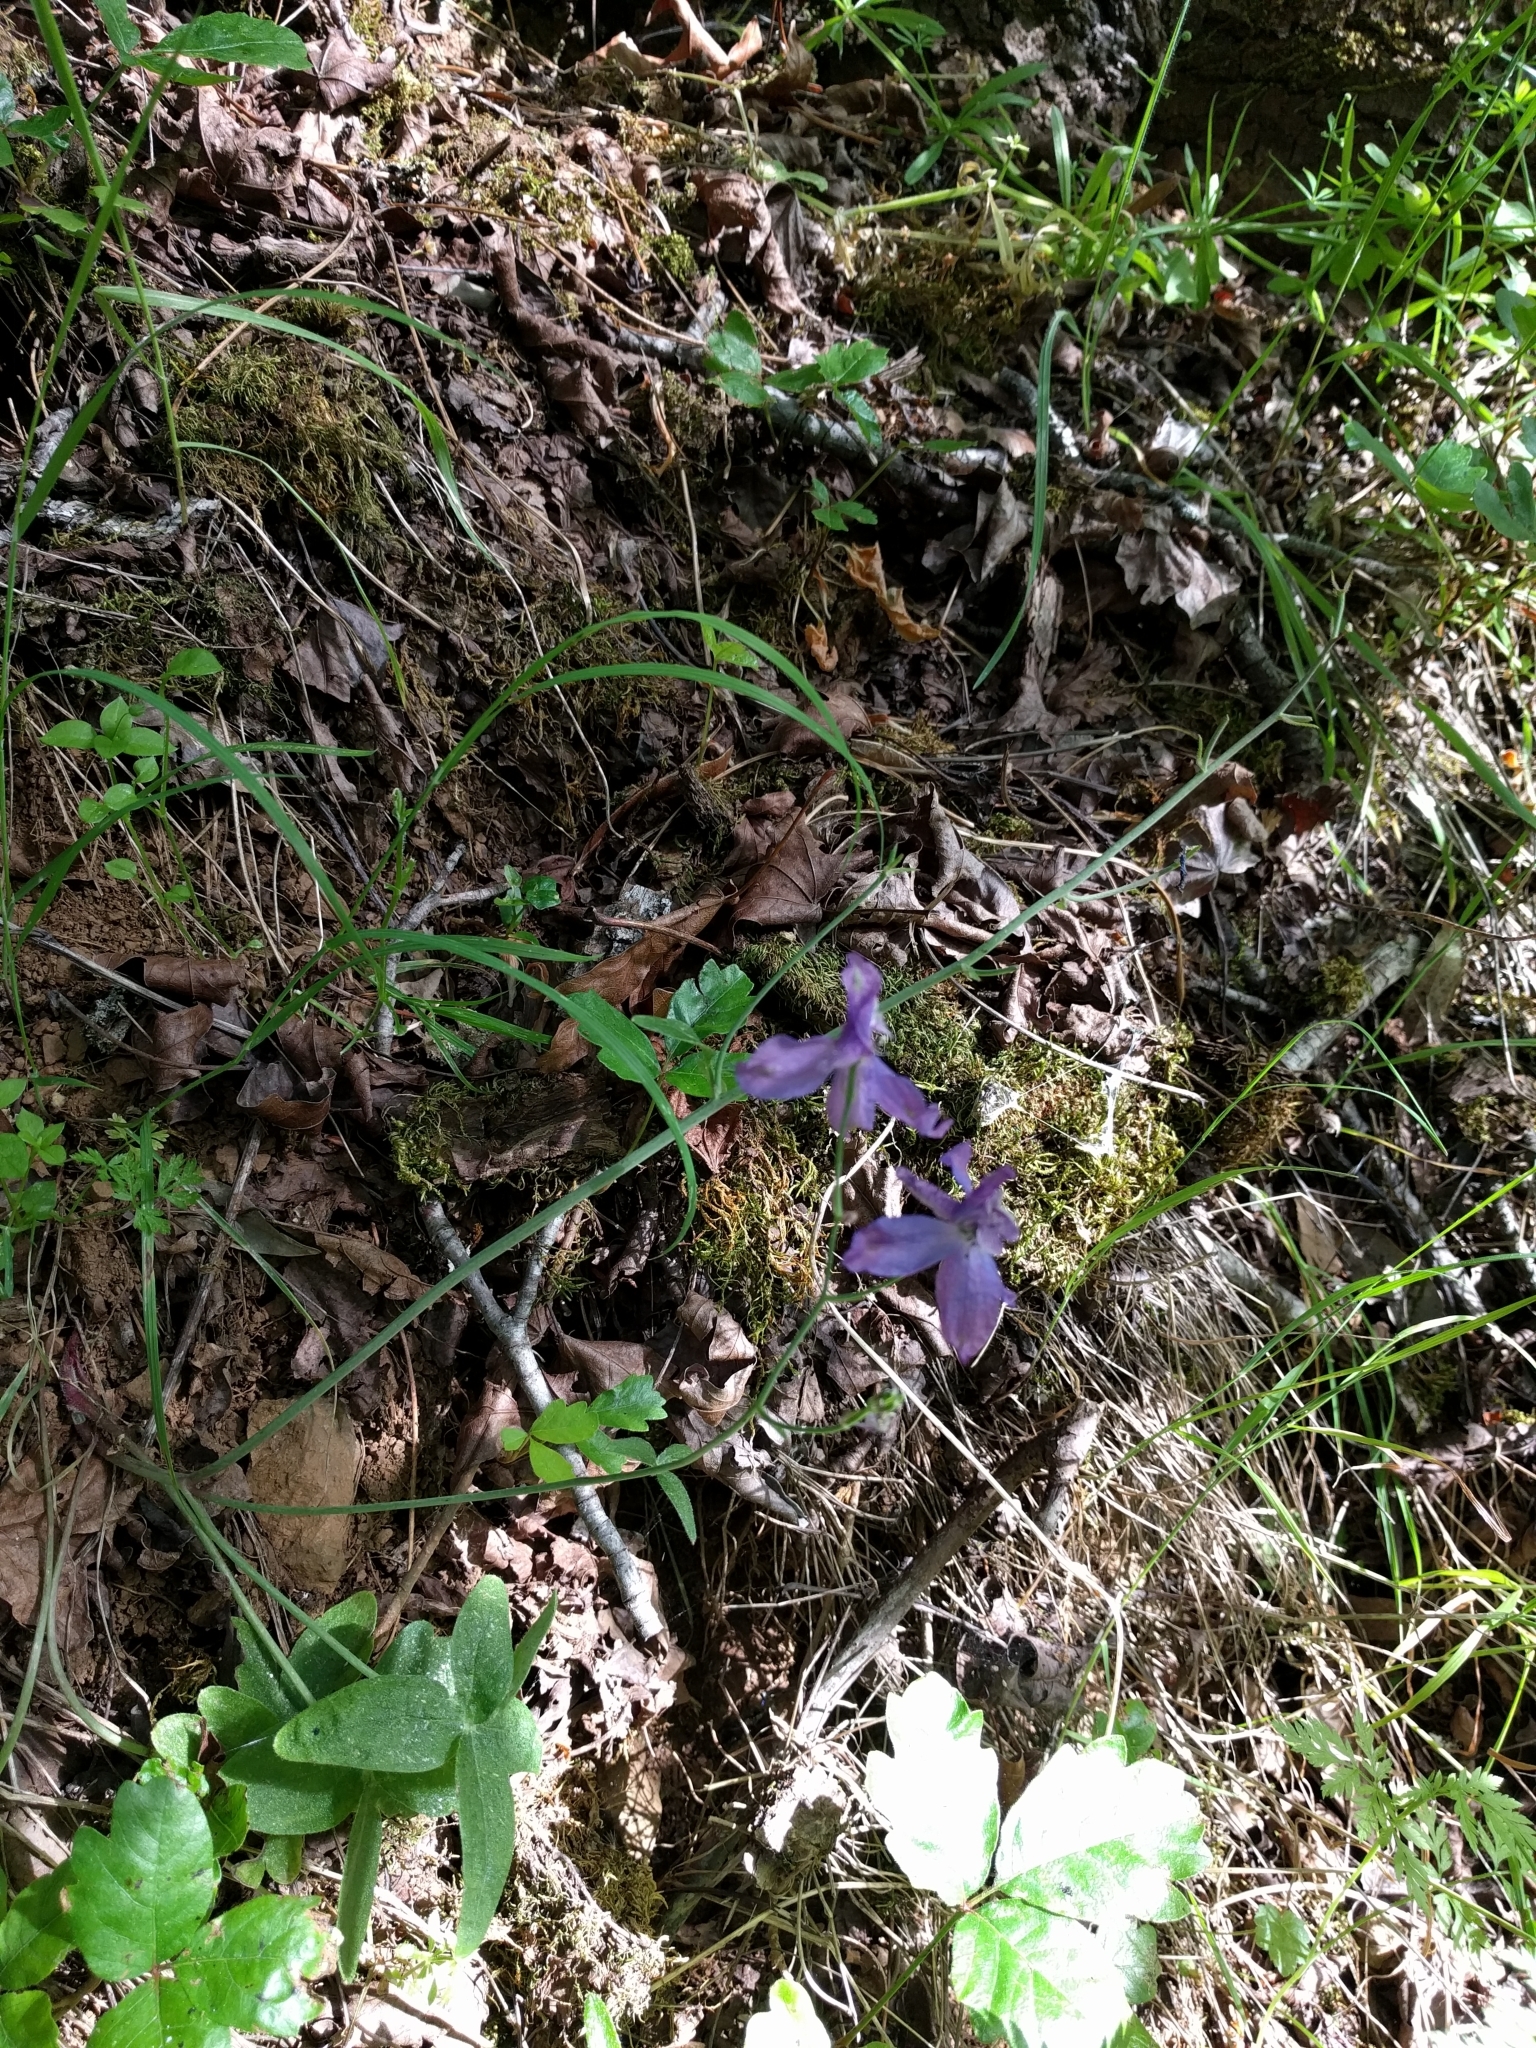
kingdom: Plantae
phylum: Tracheophyta
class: Magnoliopsida
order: Ranunculales
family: Ranunculaceae
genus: Delphinium
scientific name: Delphinium patens
